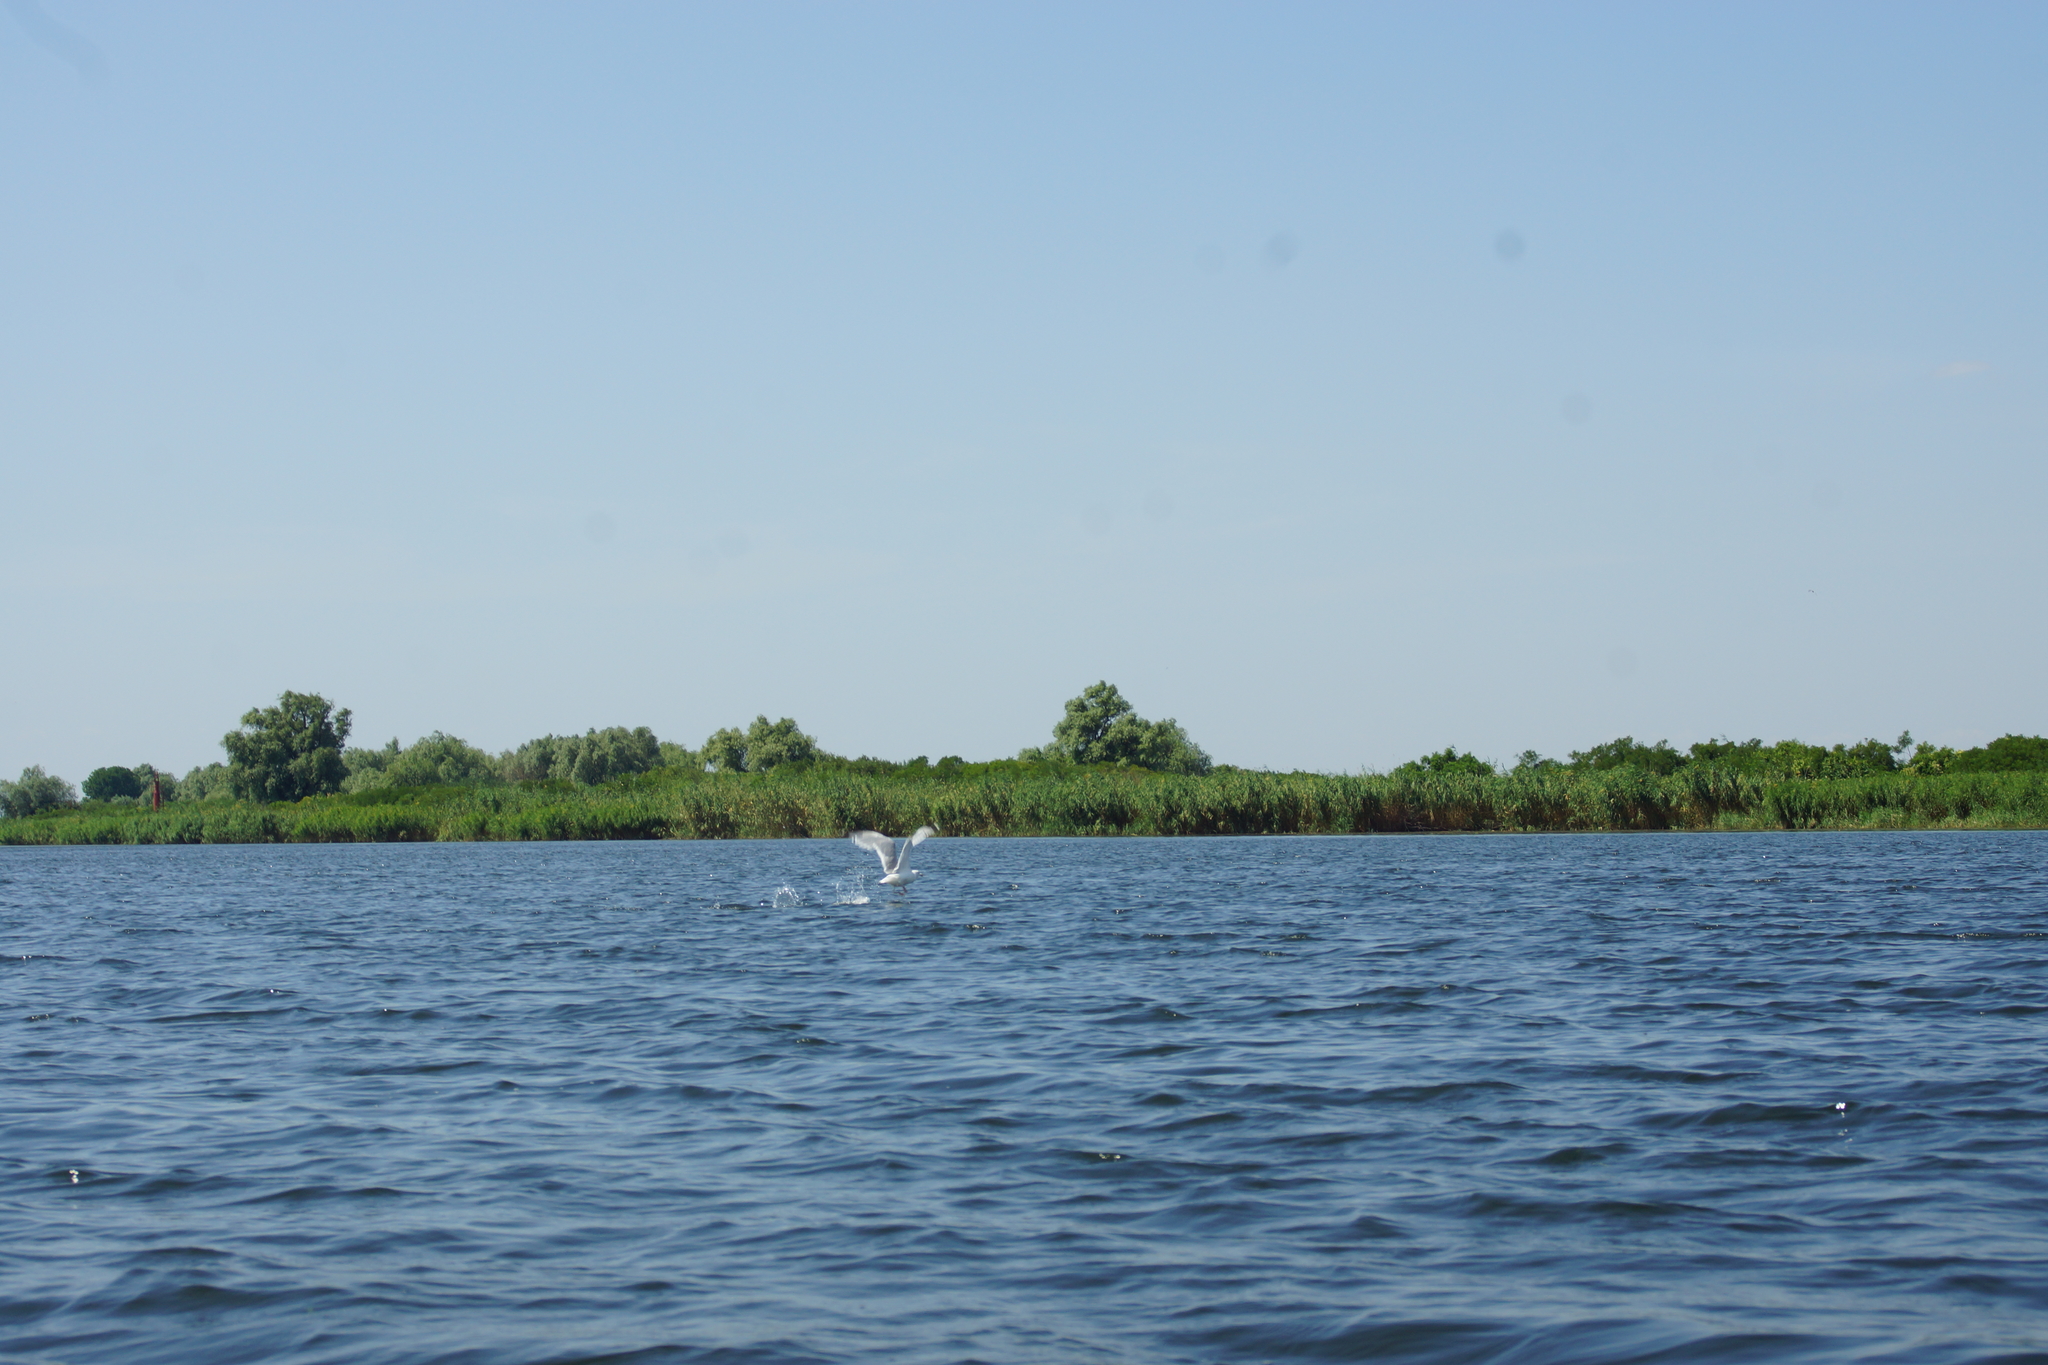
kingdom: Animalia
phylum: Chordata
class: Aves
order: Charadriiformes
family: Laridae
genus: Larus
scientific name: Larus cachinnans
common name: Caspian gull
